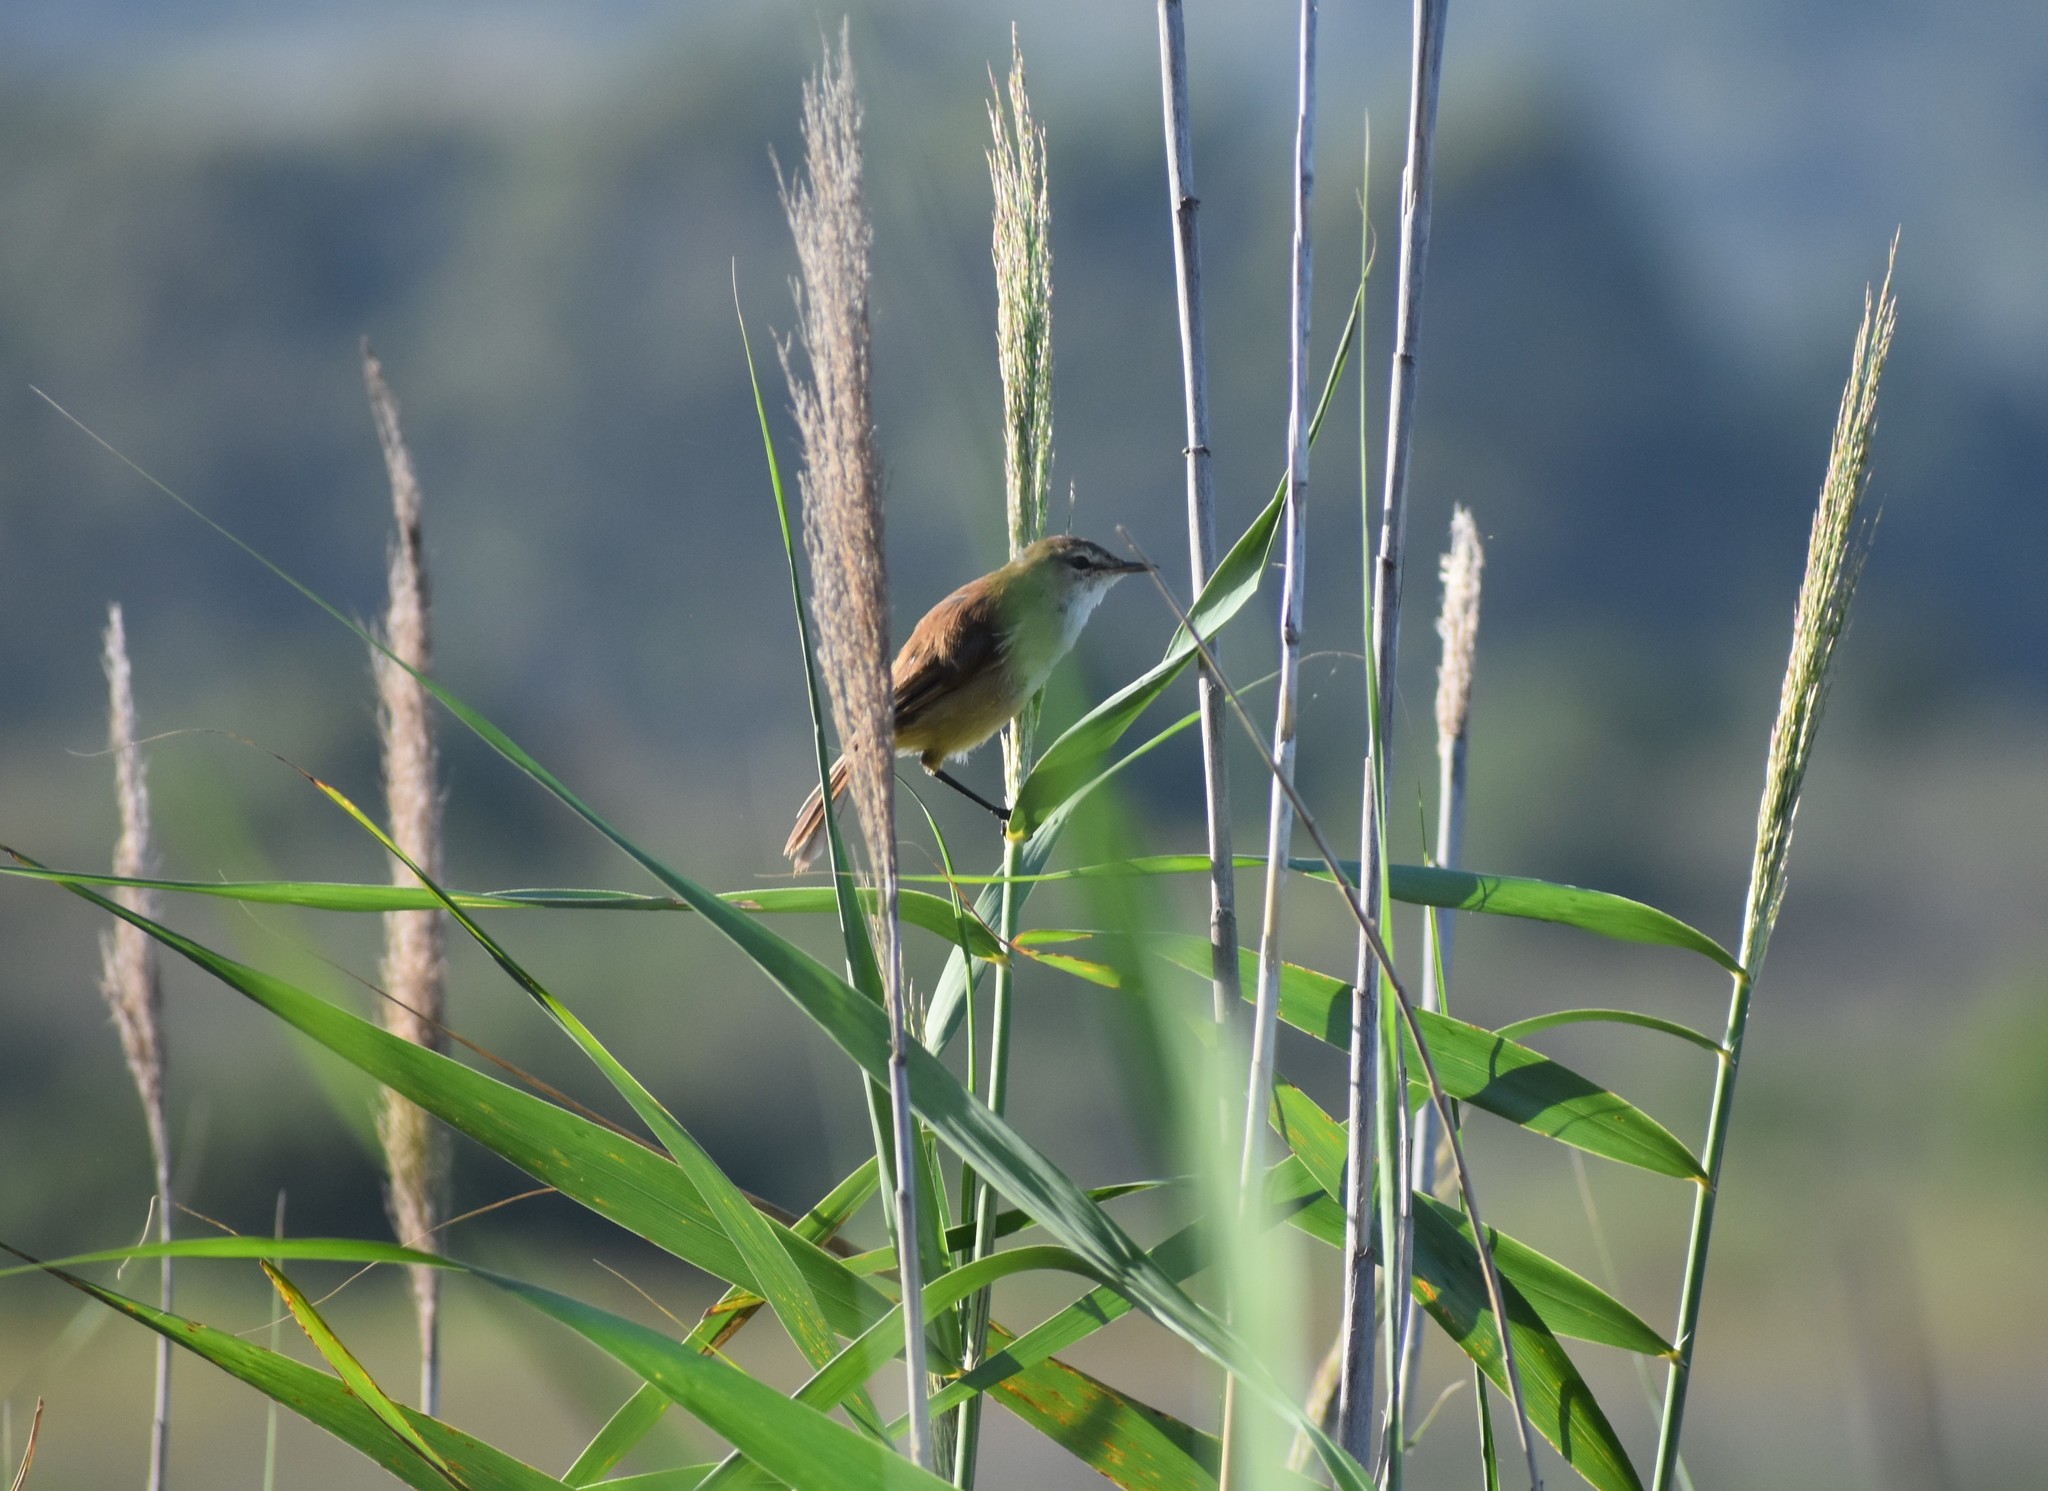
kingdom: Animalia
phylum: Chordata
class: Aves
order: Passeriformes
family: Acrocephalidae
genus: Acrocephalus
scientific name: Acrocephalus gracilirostris
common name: Lesser swamp warbler
